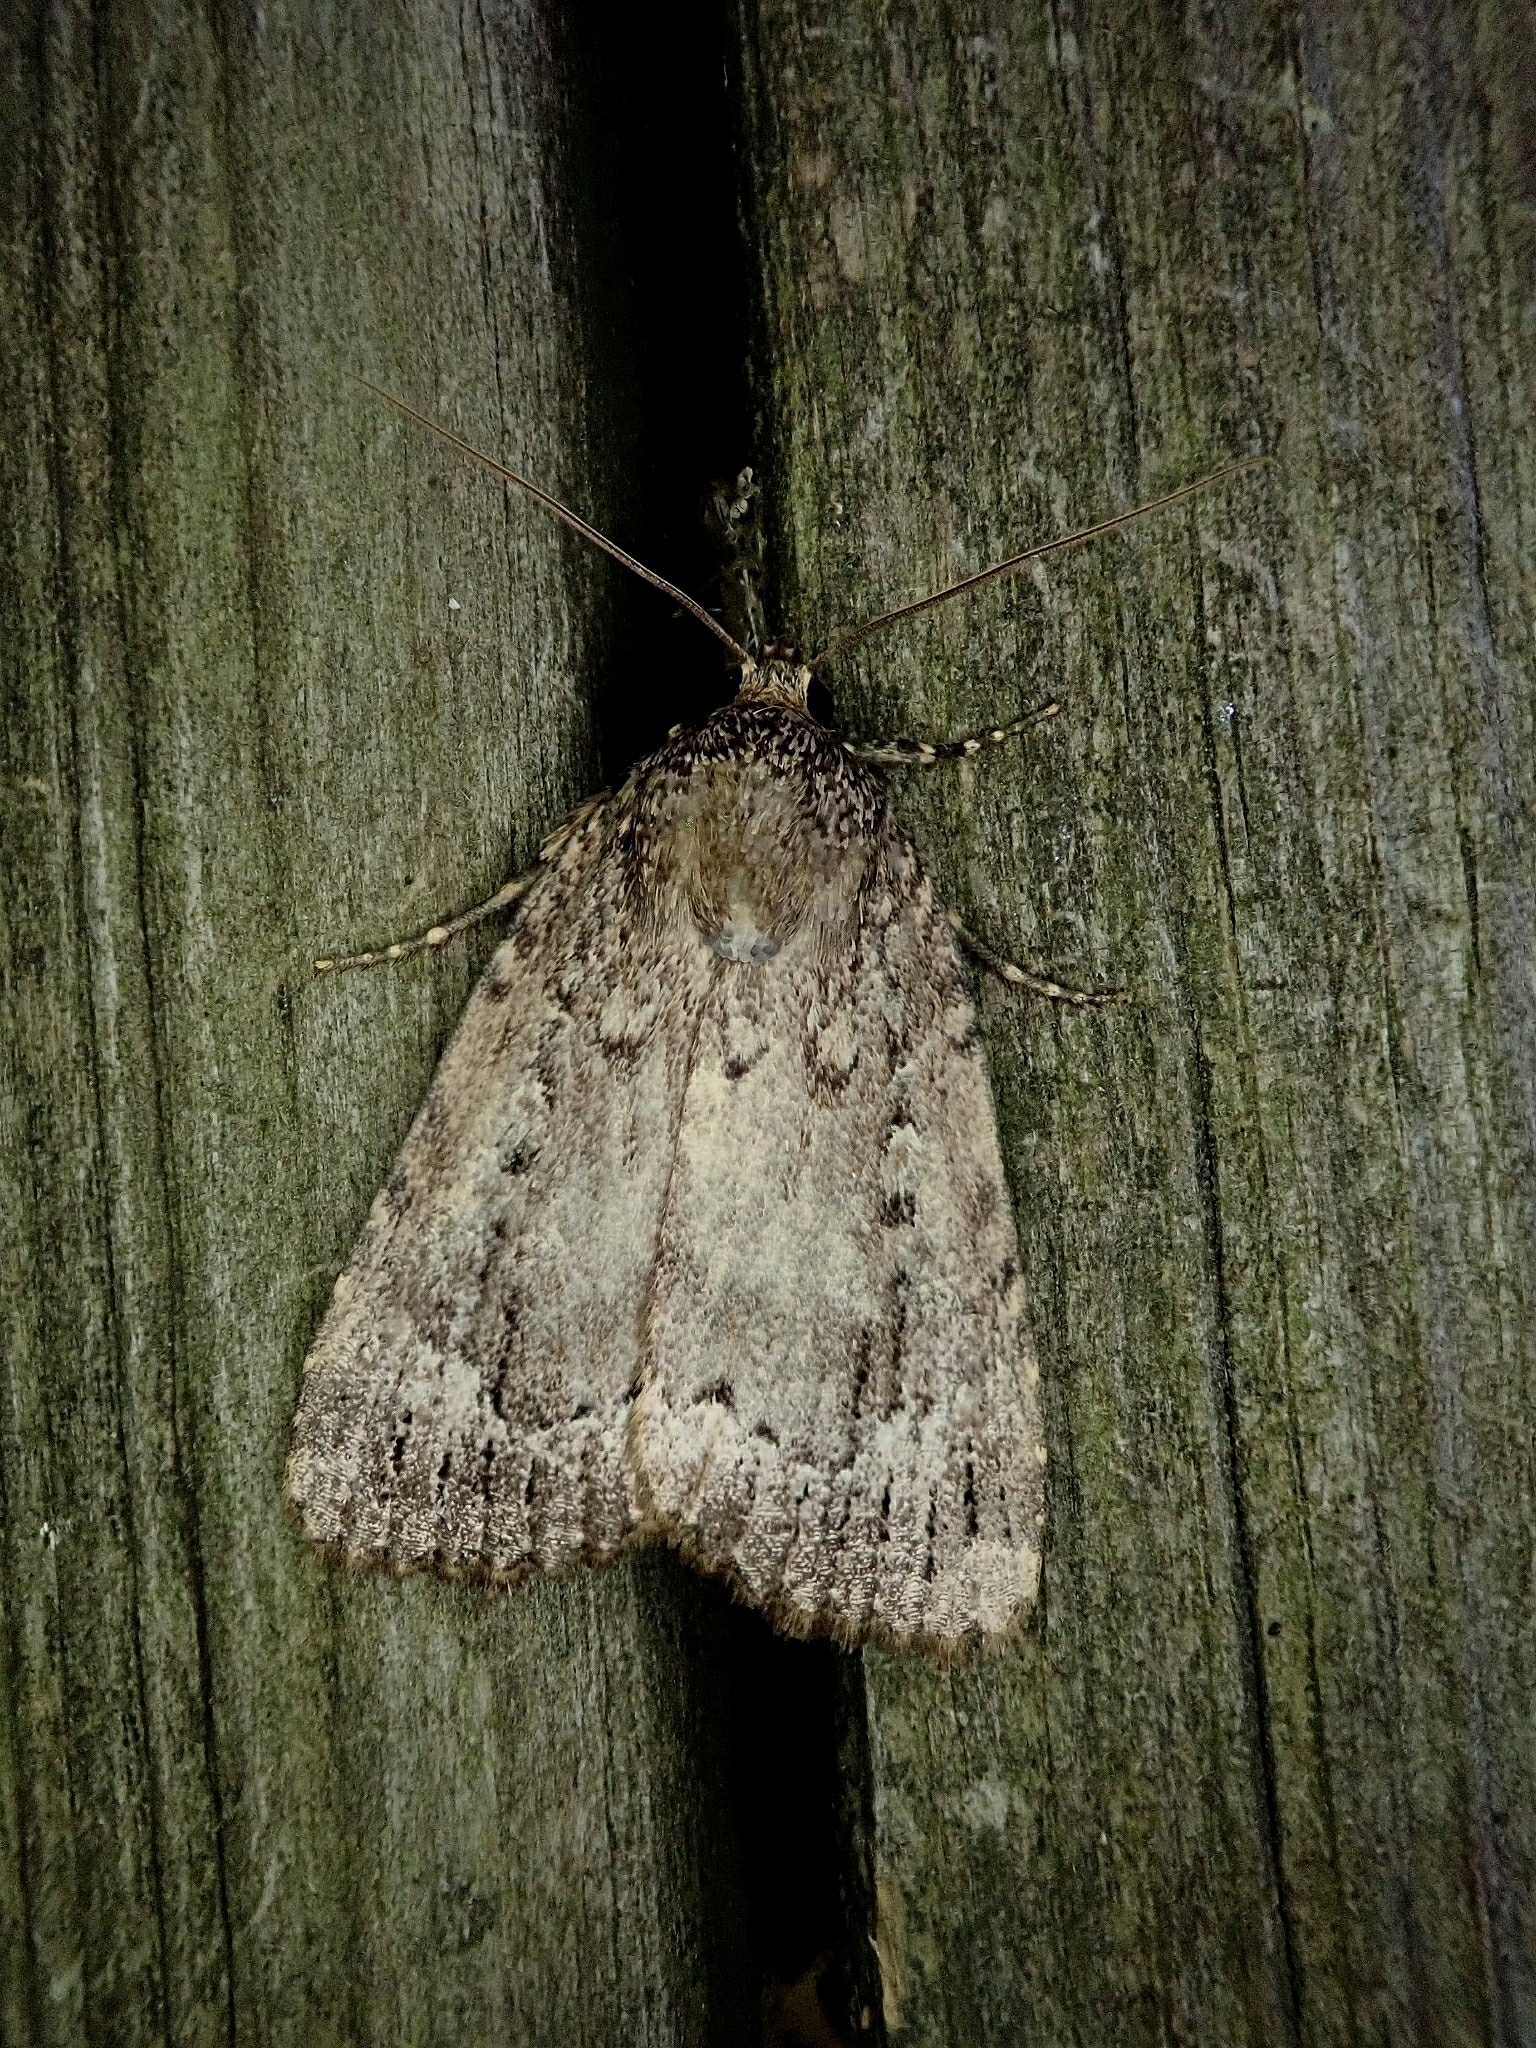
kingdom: Animalia
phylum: Arthropoda
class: Insecta
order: Lepidoptera
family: Noctuidae
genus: Amphipyra
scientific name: Amphipyra pyramidoides
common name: American copper underwing
